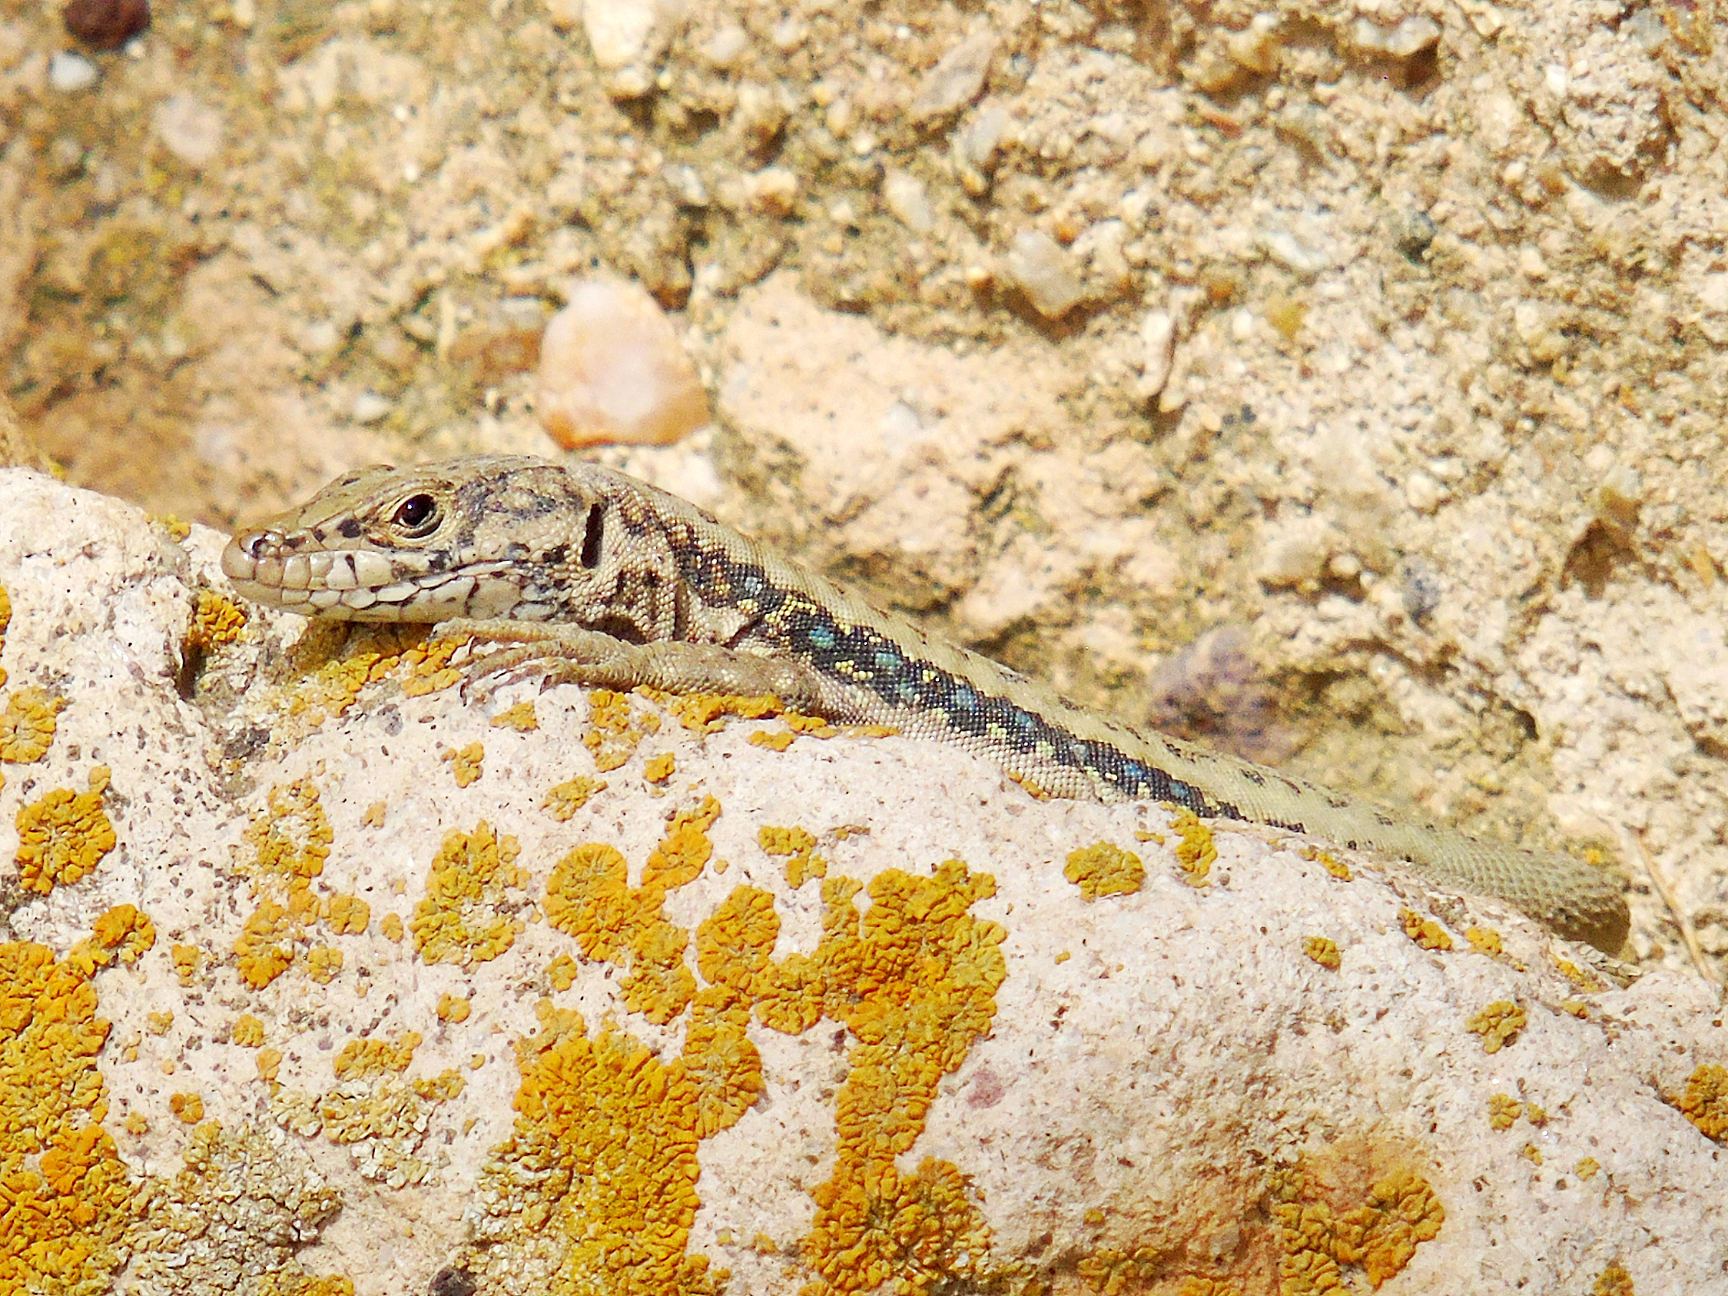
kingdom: Animalia
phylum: Chordata
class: Squamata
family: Lacertidae
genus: Apathya
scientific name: Apathya cappadocica
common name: Anatolian lizard
